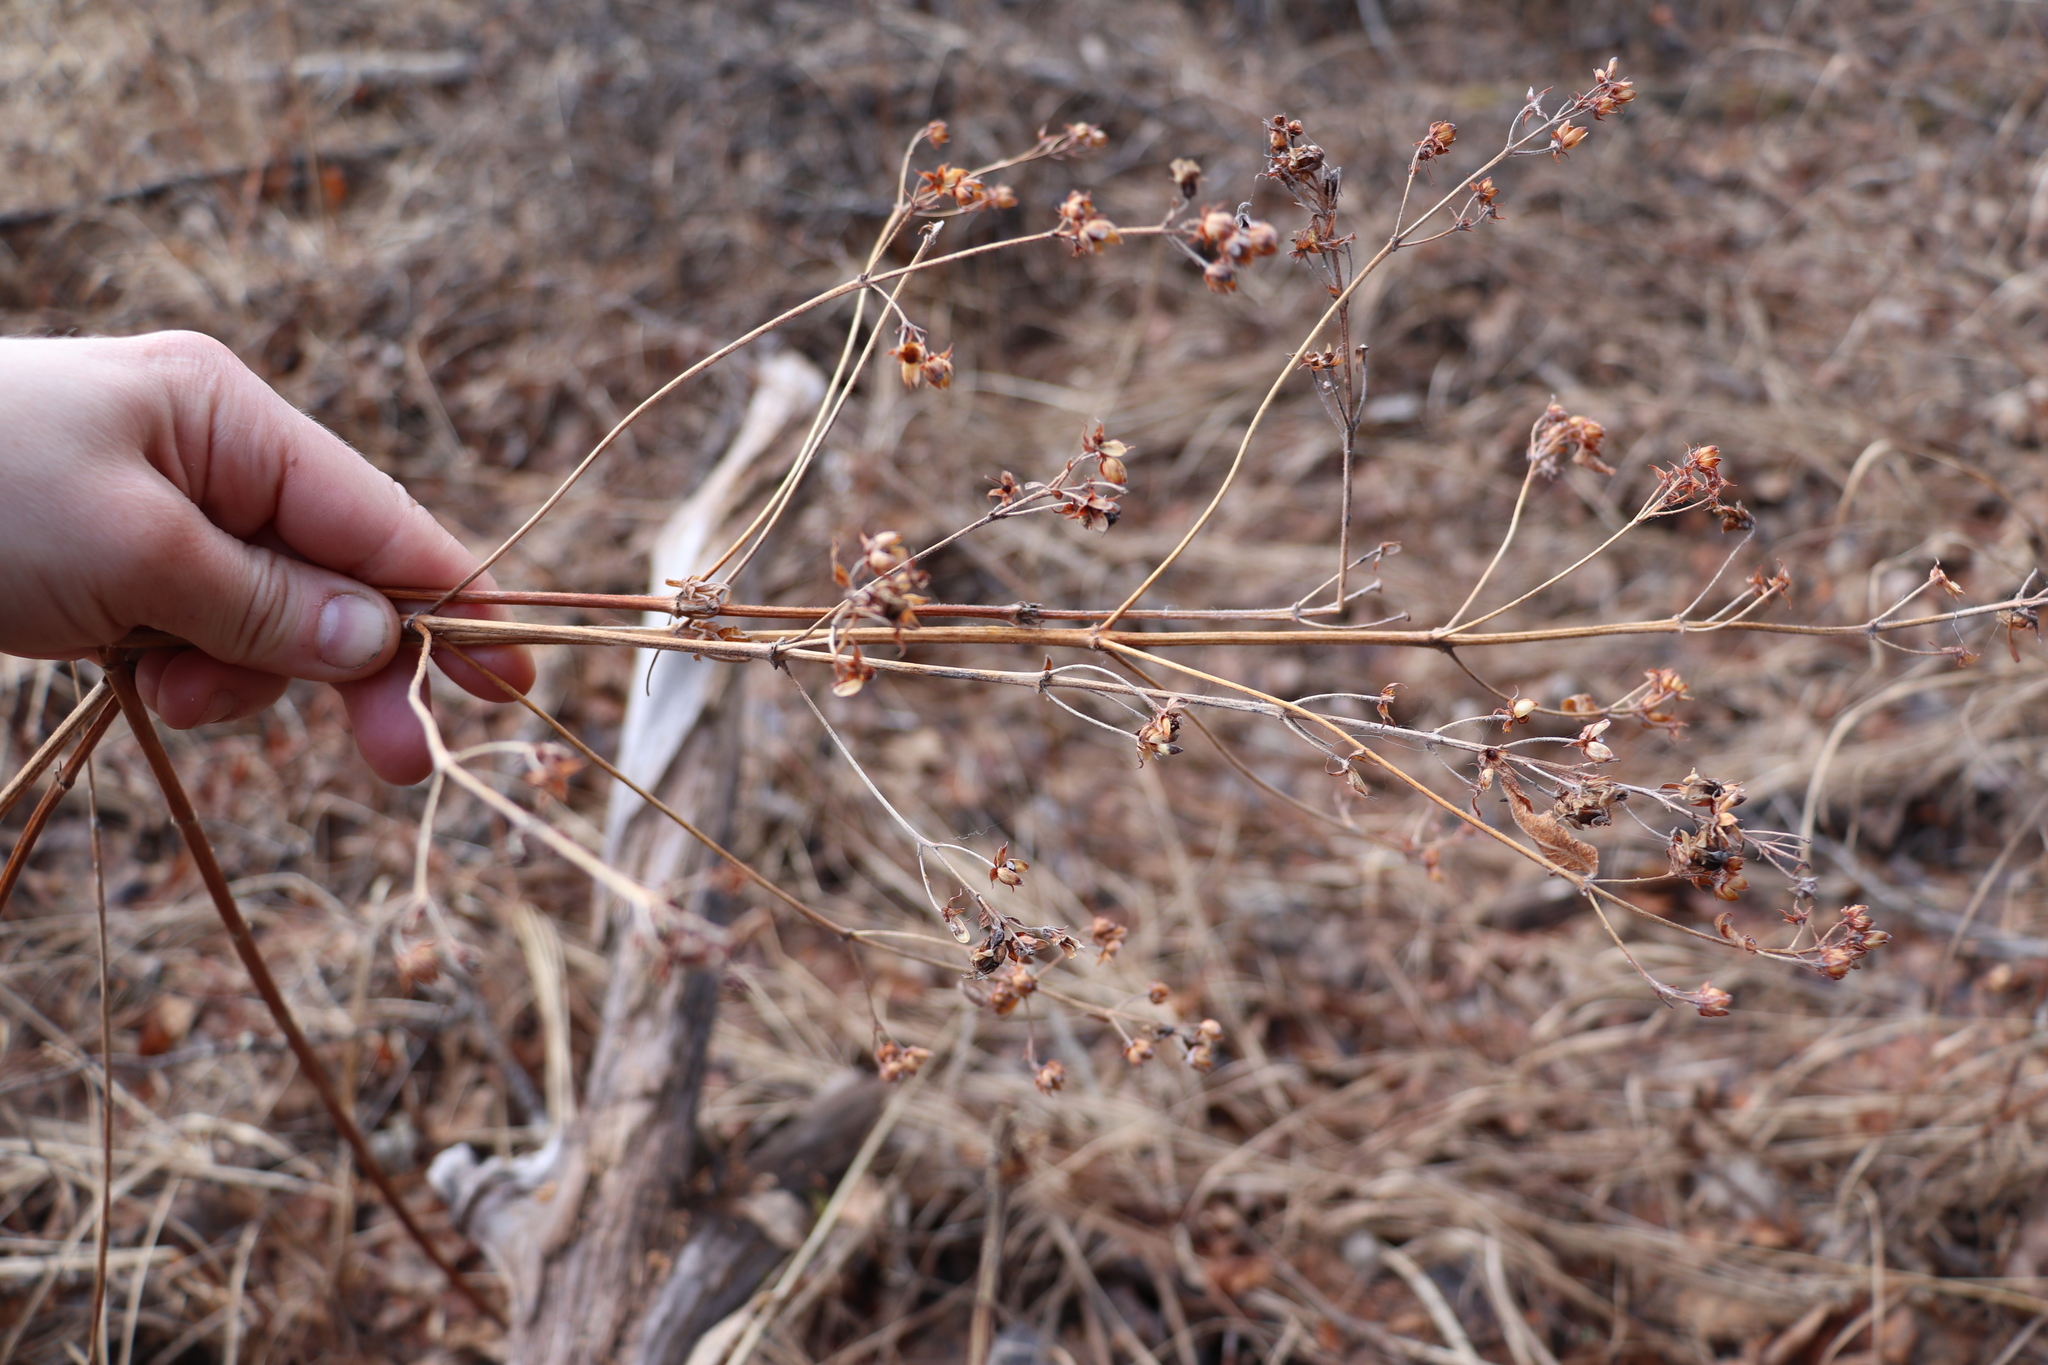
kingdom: Plantae
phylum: Tracheophyta
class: Magnoliopsida
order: Ericales
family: Primulaceae
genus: Lysimachia
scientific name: Lysimachia vulgaris
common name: Yellow loosestrife
